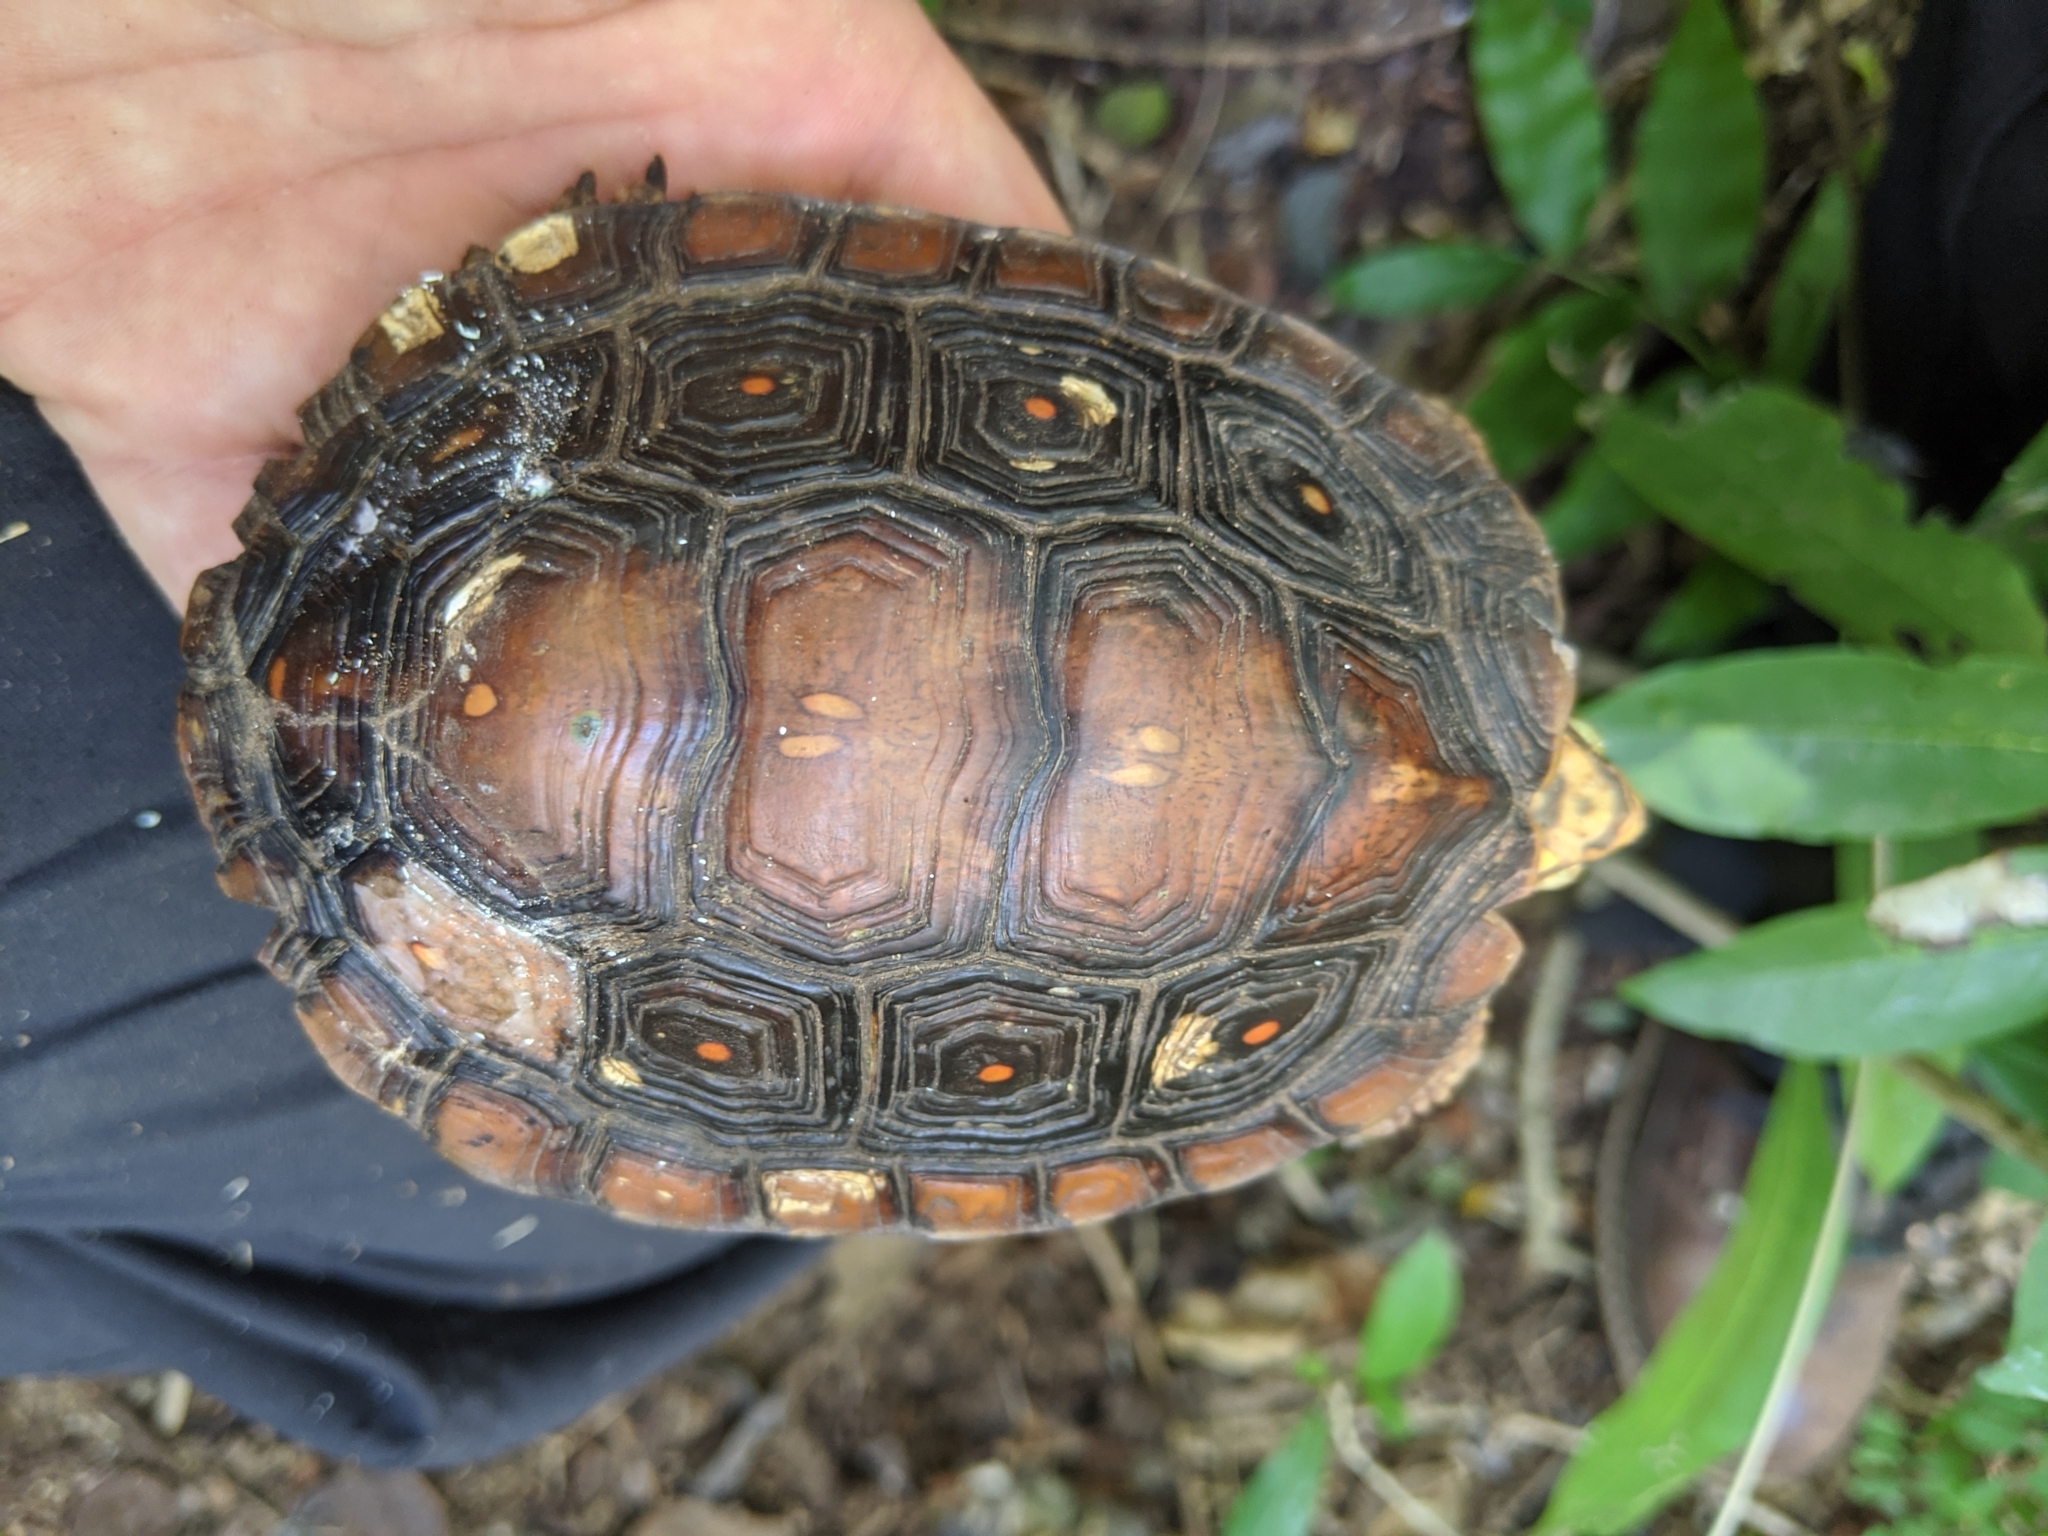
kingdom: Animalia
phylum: Chordata
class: Testudines
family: Geoemydidae
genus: Rhinoclemmys
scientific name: Rhinoclemmys rubida
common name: Mexican spotted wood turtle
